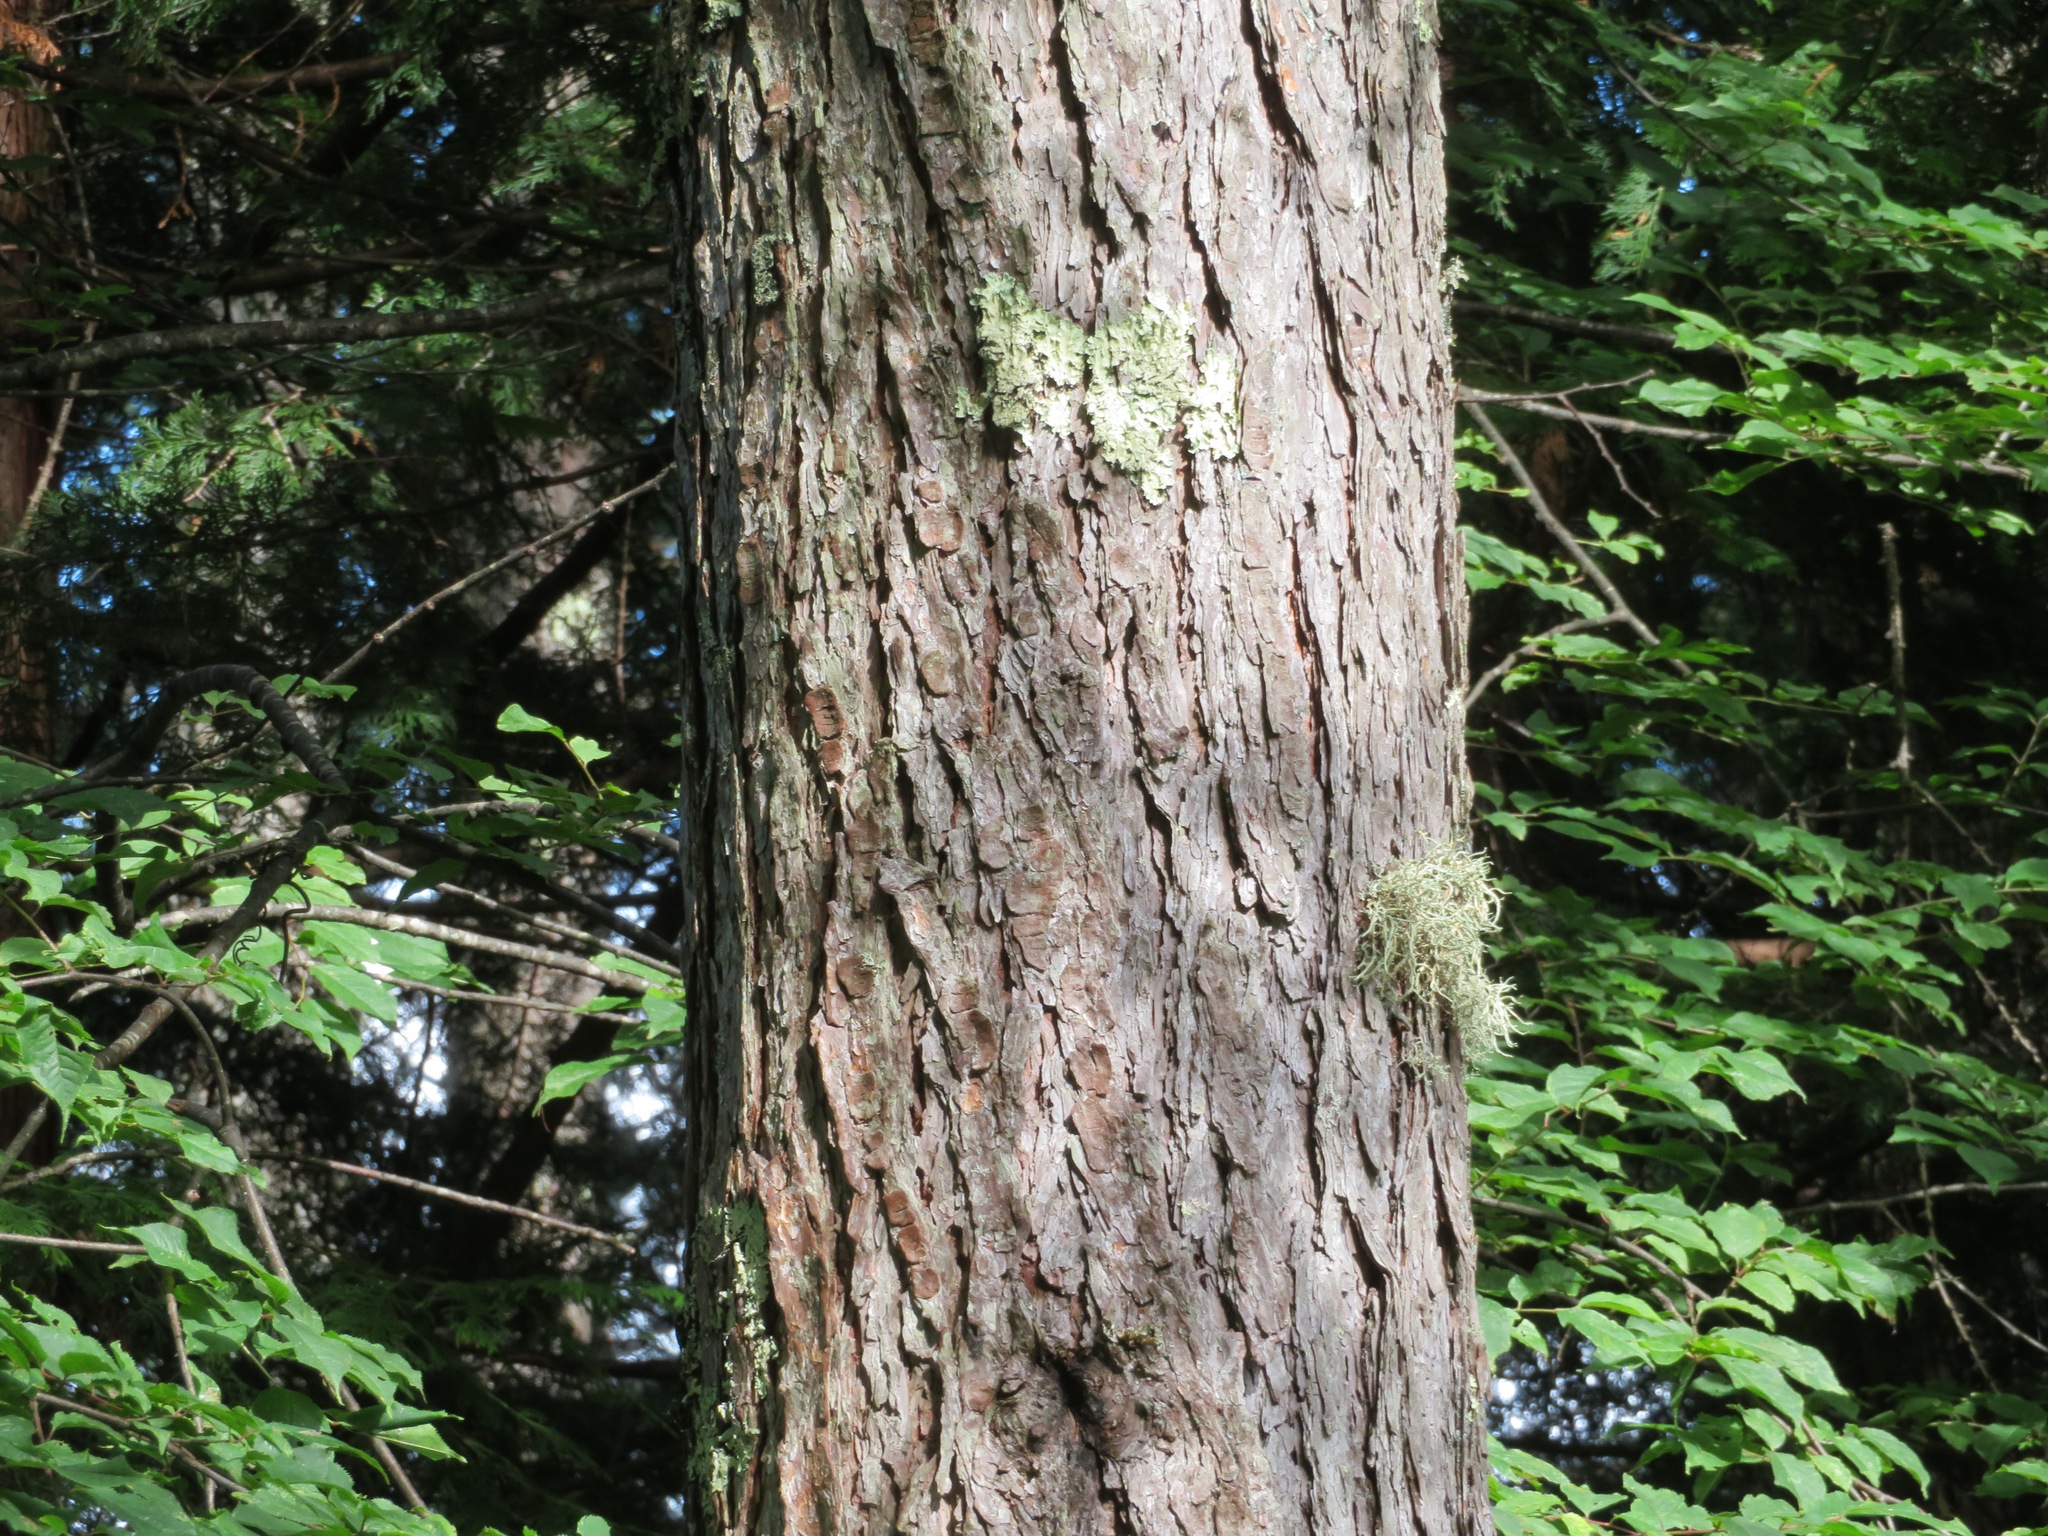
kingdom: Plantae
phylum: Tracheophyta
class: Pinopsida
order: Pinales
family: Pinaceae
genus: Larix
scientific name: Larix kaempferi
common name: Japanese larch
